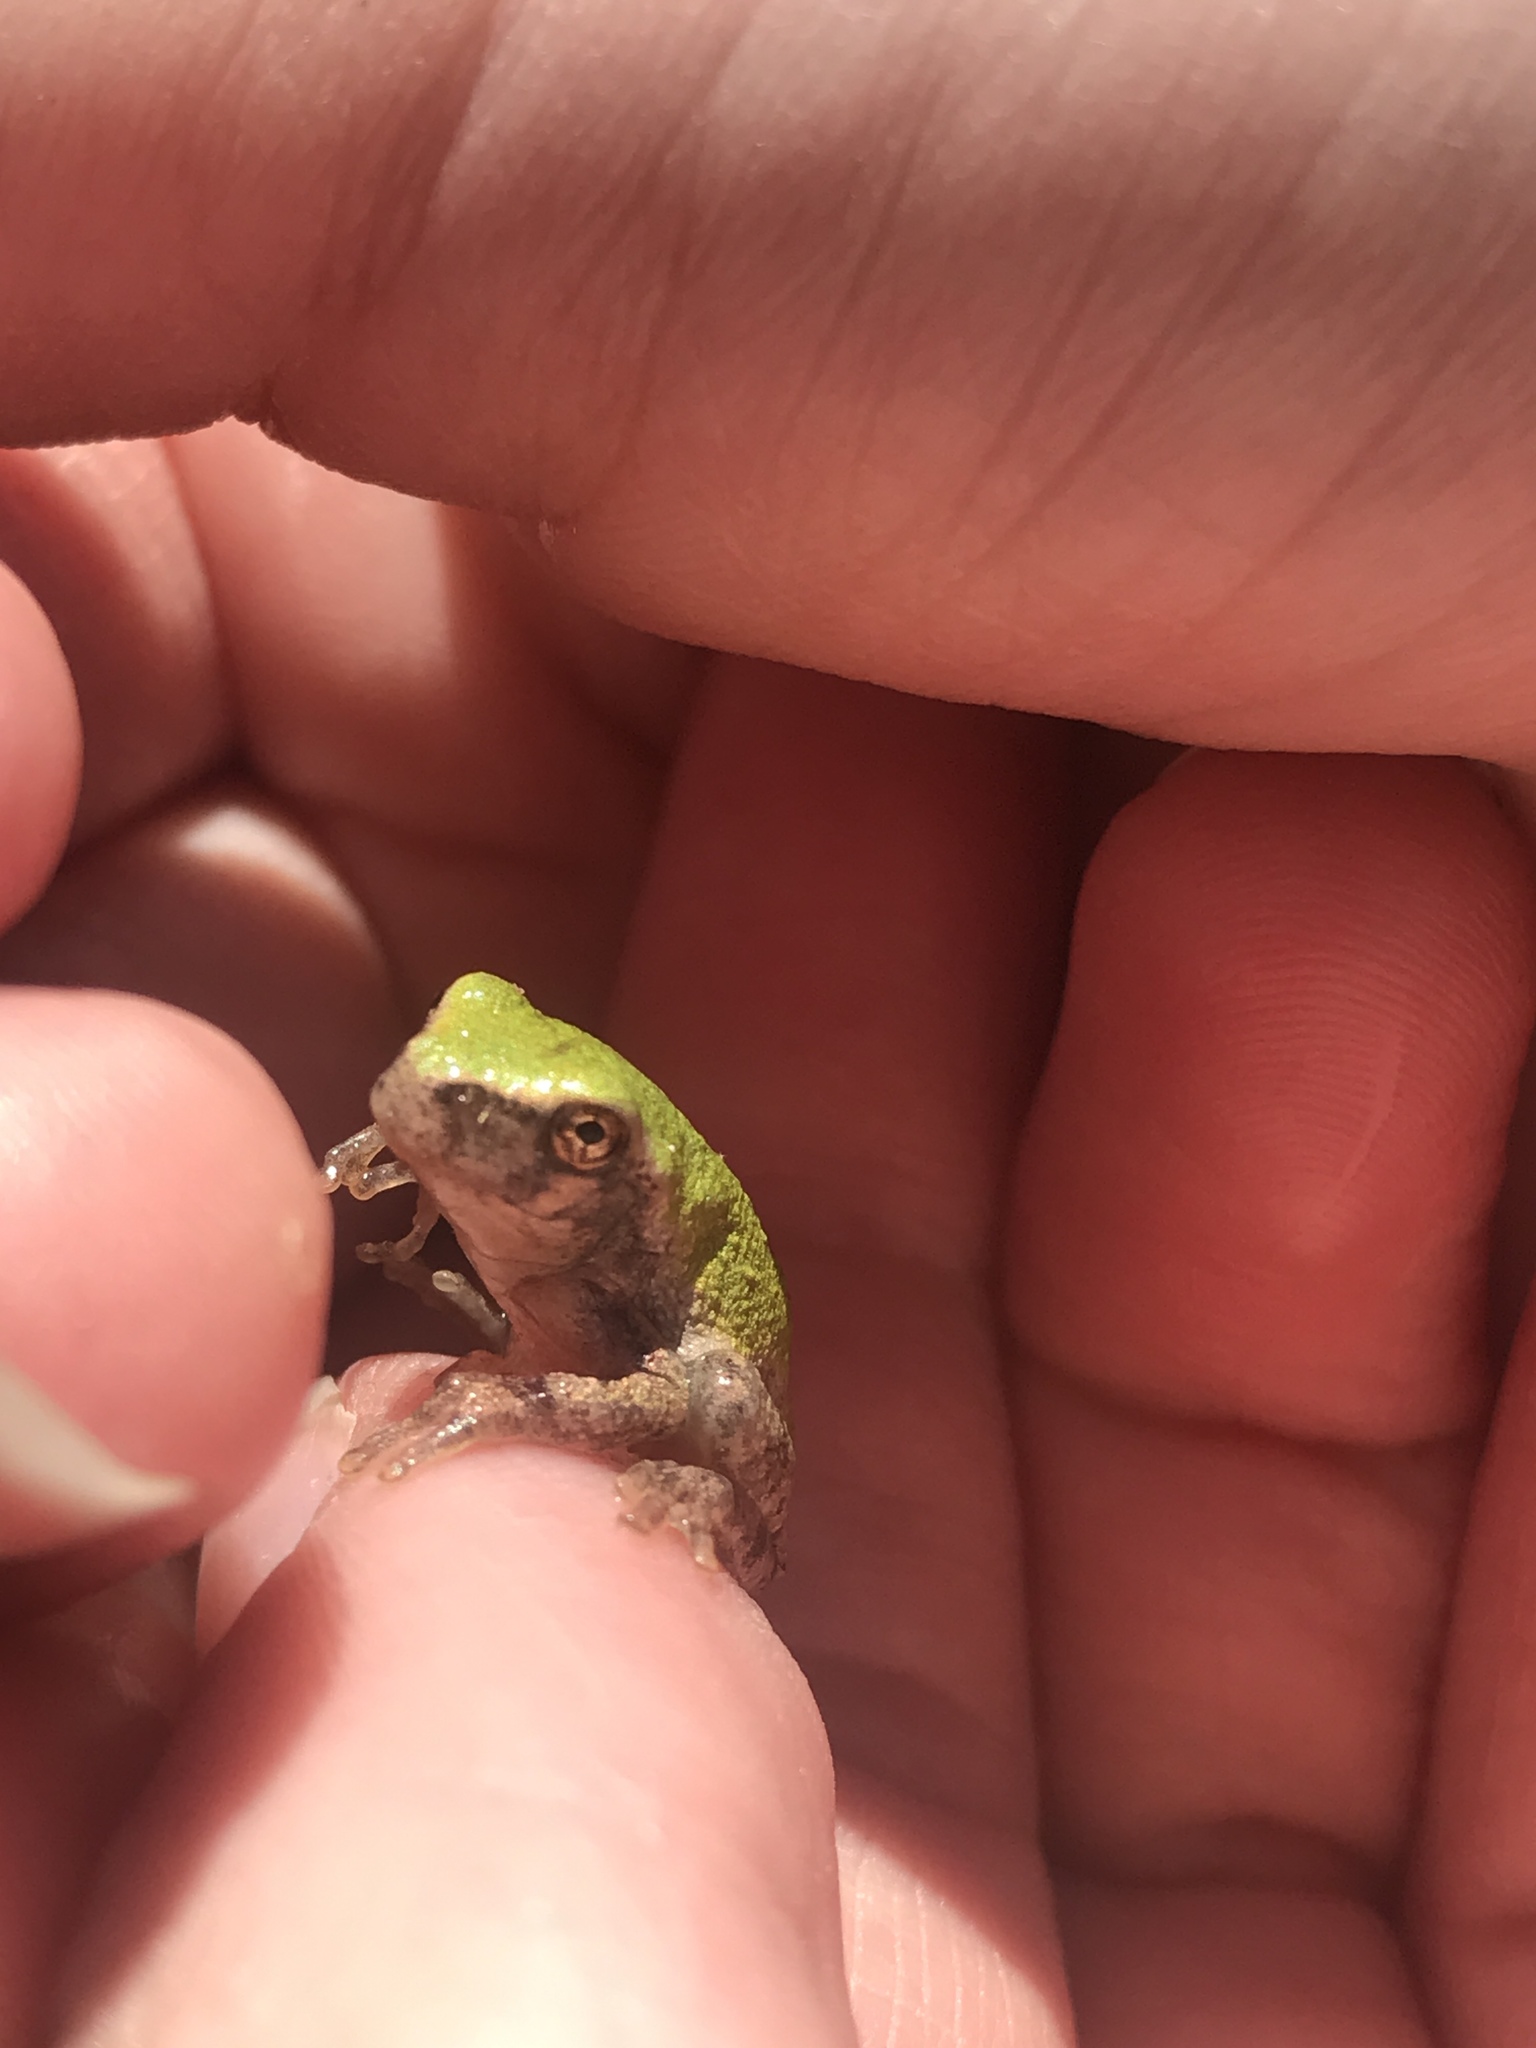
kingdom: Animalia
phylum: Chordata
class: Amphibia
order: Anura
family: Hylidae
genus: Hyla
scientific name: Hyla
